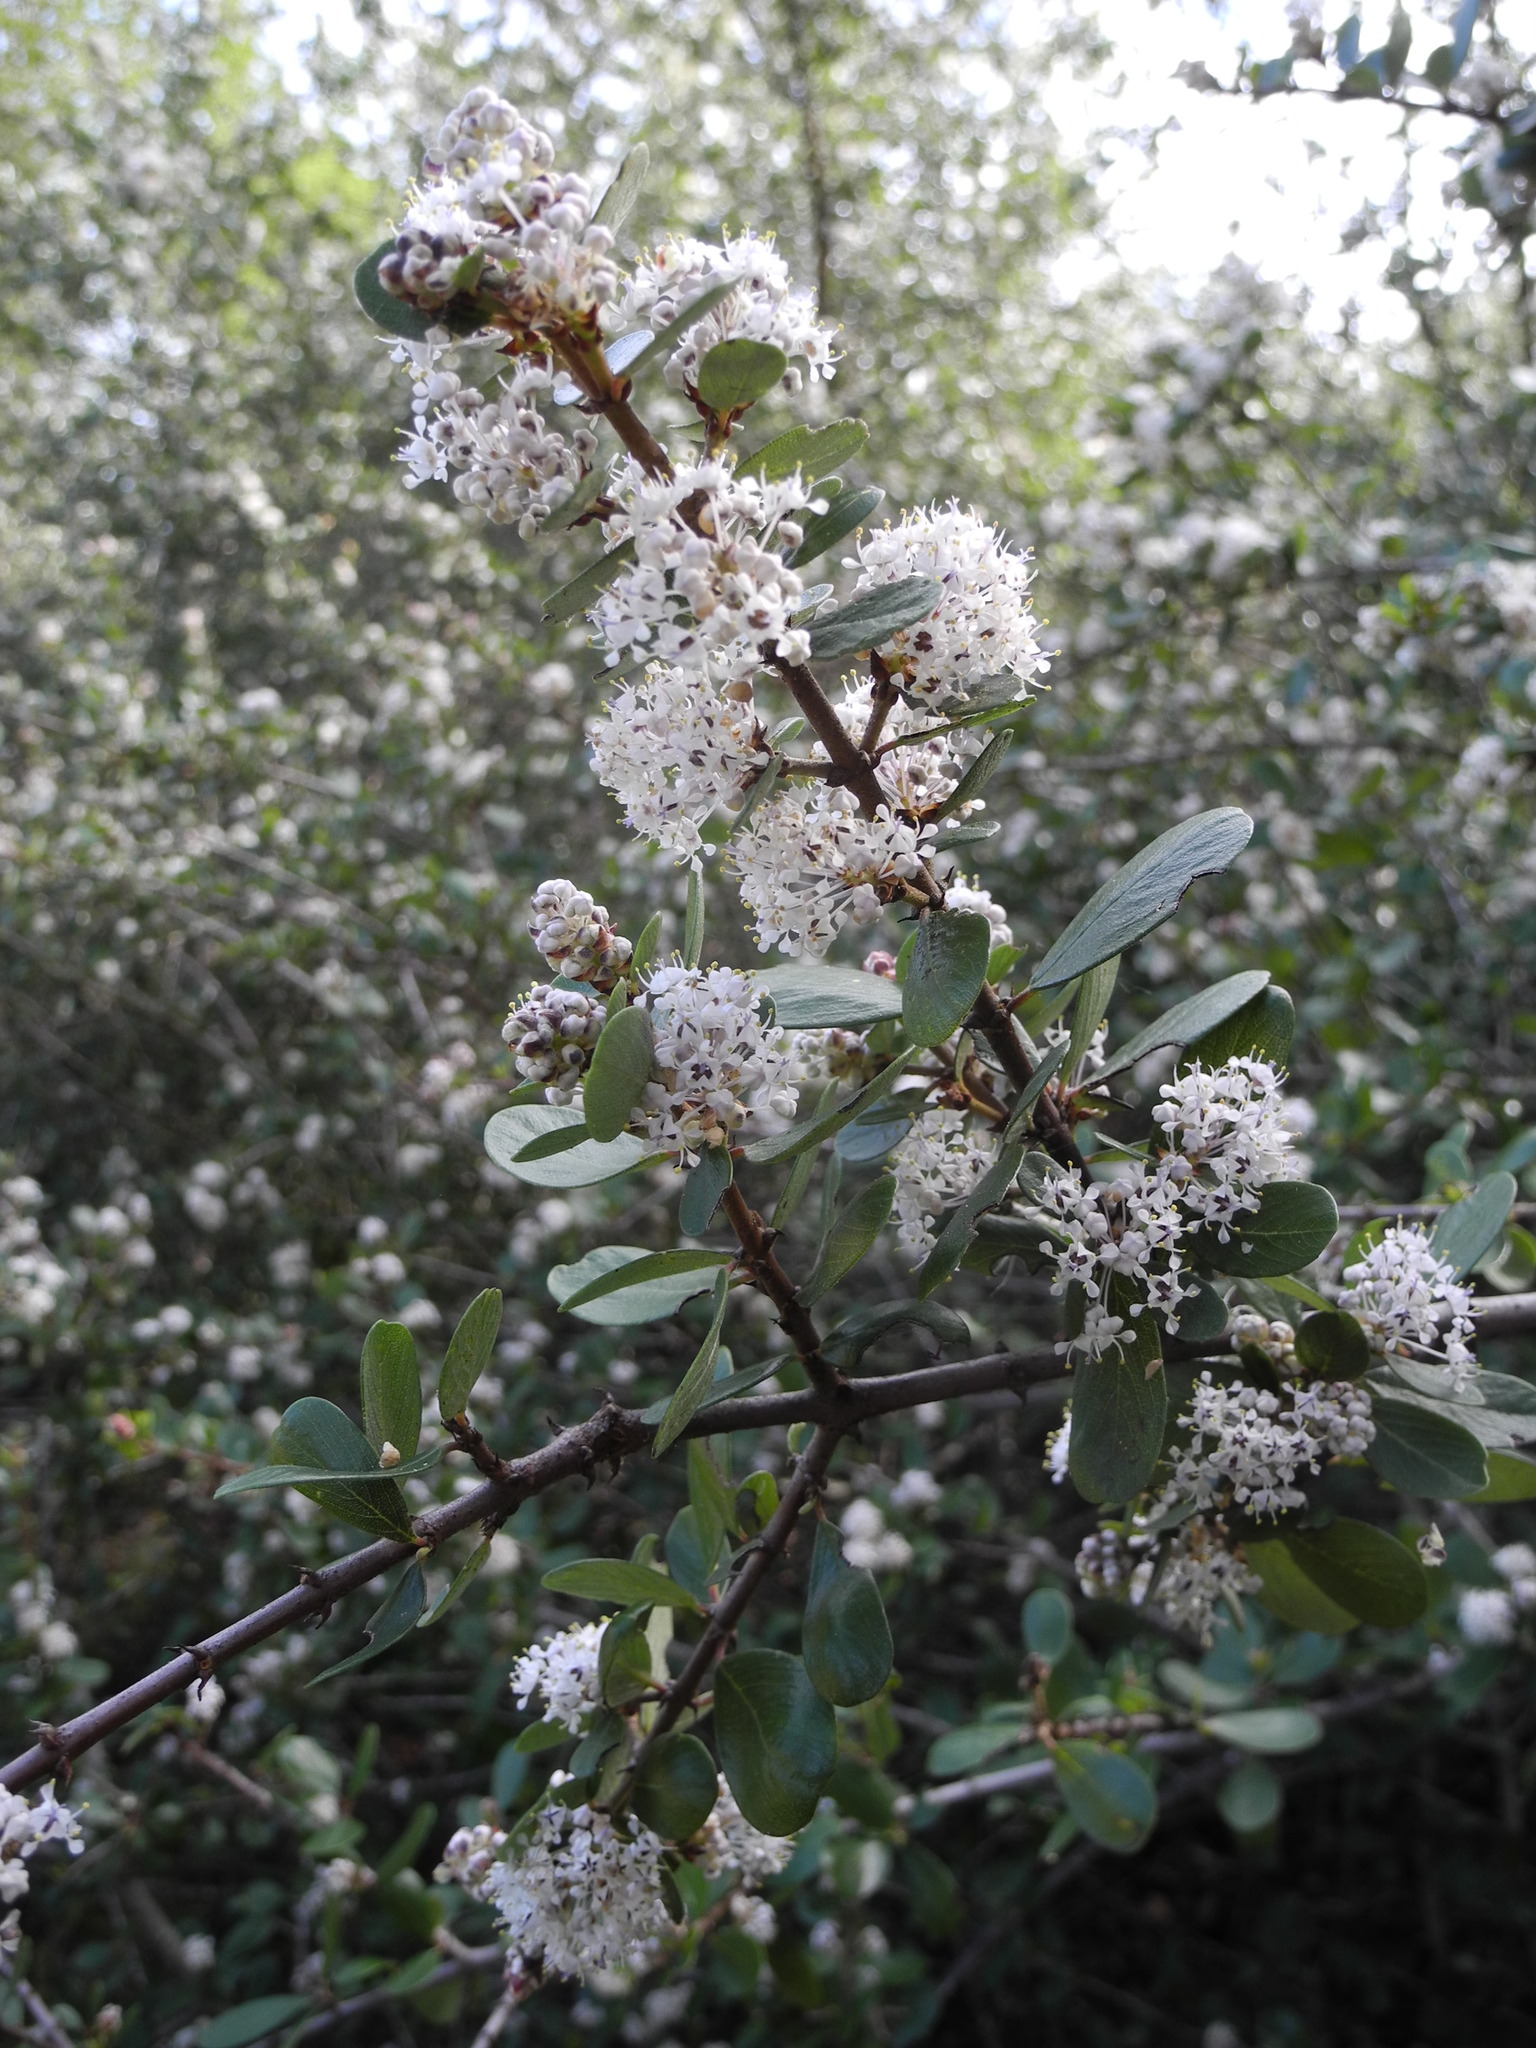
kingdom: Plantae
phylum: Tracheophyta
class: Magnoliopsida
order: Rosales
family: Rhamnaceae
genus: Ceanothus
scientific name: Ceanothus cuneatus
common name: Cuneate ceanothus
